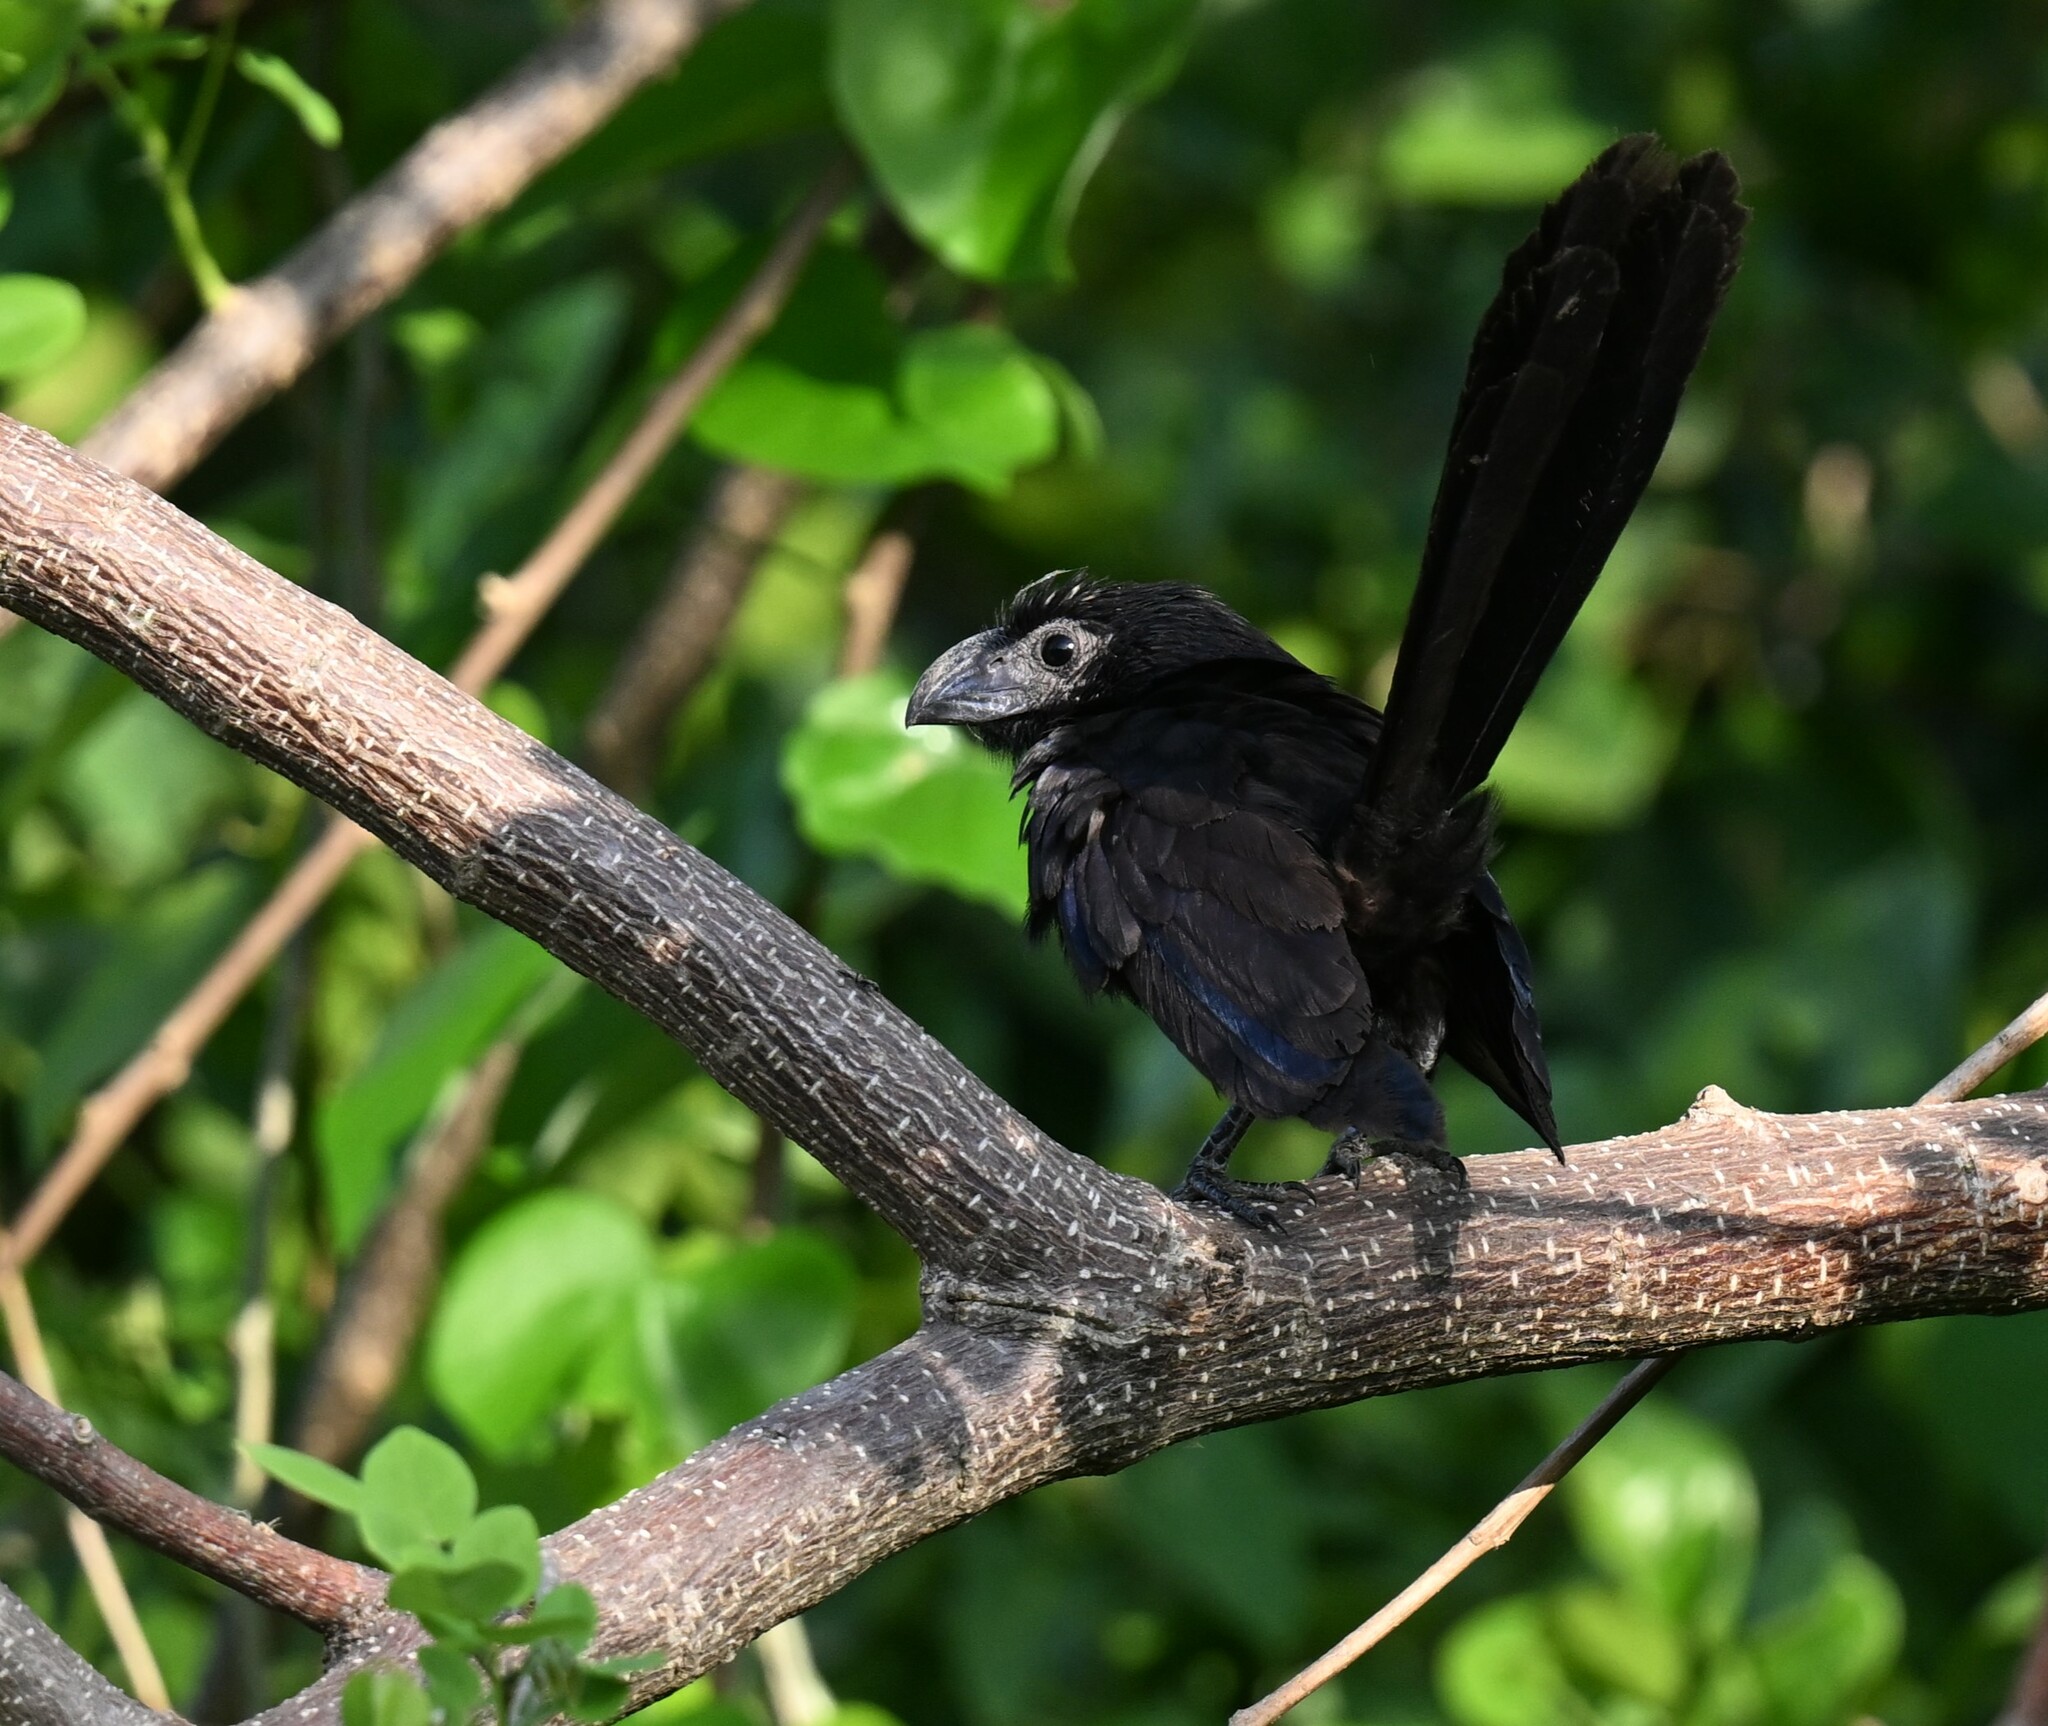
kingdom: Animalia
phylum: Chordata
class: Aves
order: Cuculiformes
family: Cuculidae
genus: Crotophaga
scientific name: Crotophaga sulcirostris
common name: Groove-billed ani
